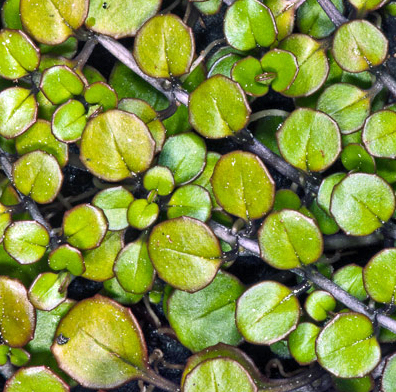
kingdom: Plantae
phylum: Tracheophyta
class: Magnoliopsida
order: Myrtales
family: Onagraceae
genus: Epilobium
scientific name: Epilobium nummularifolium
